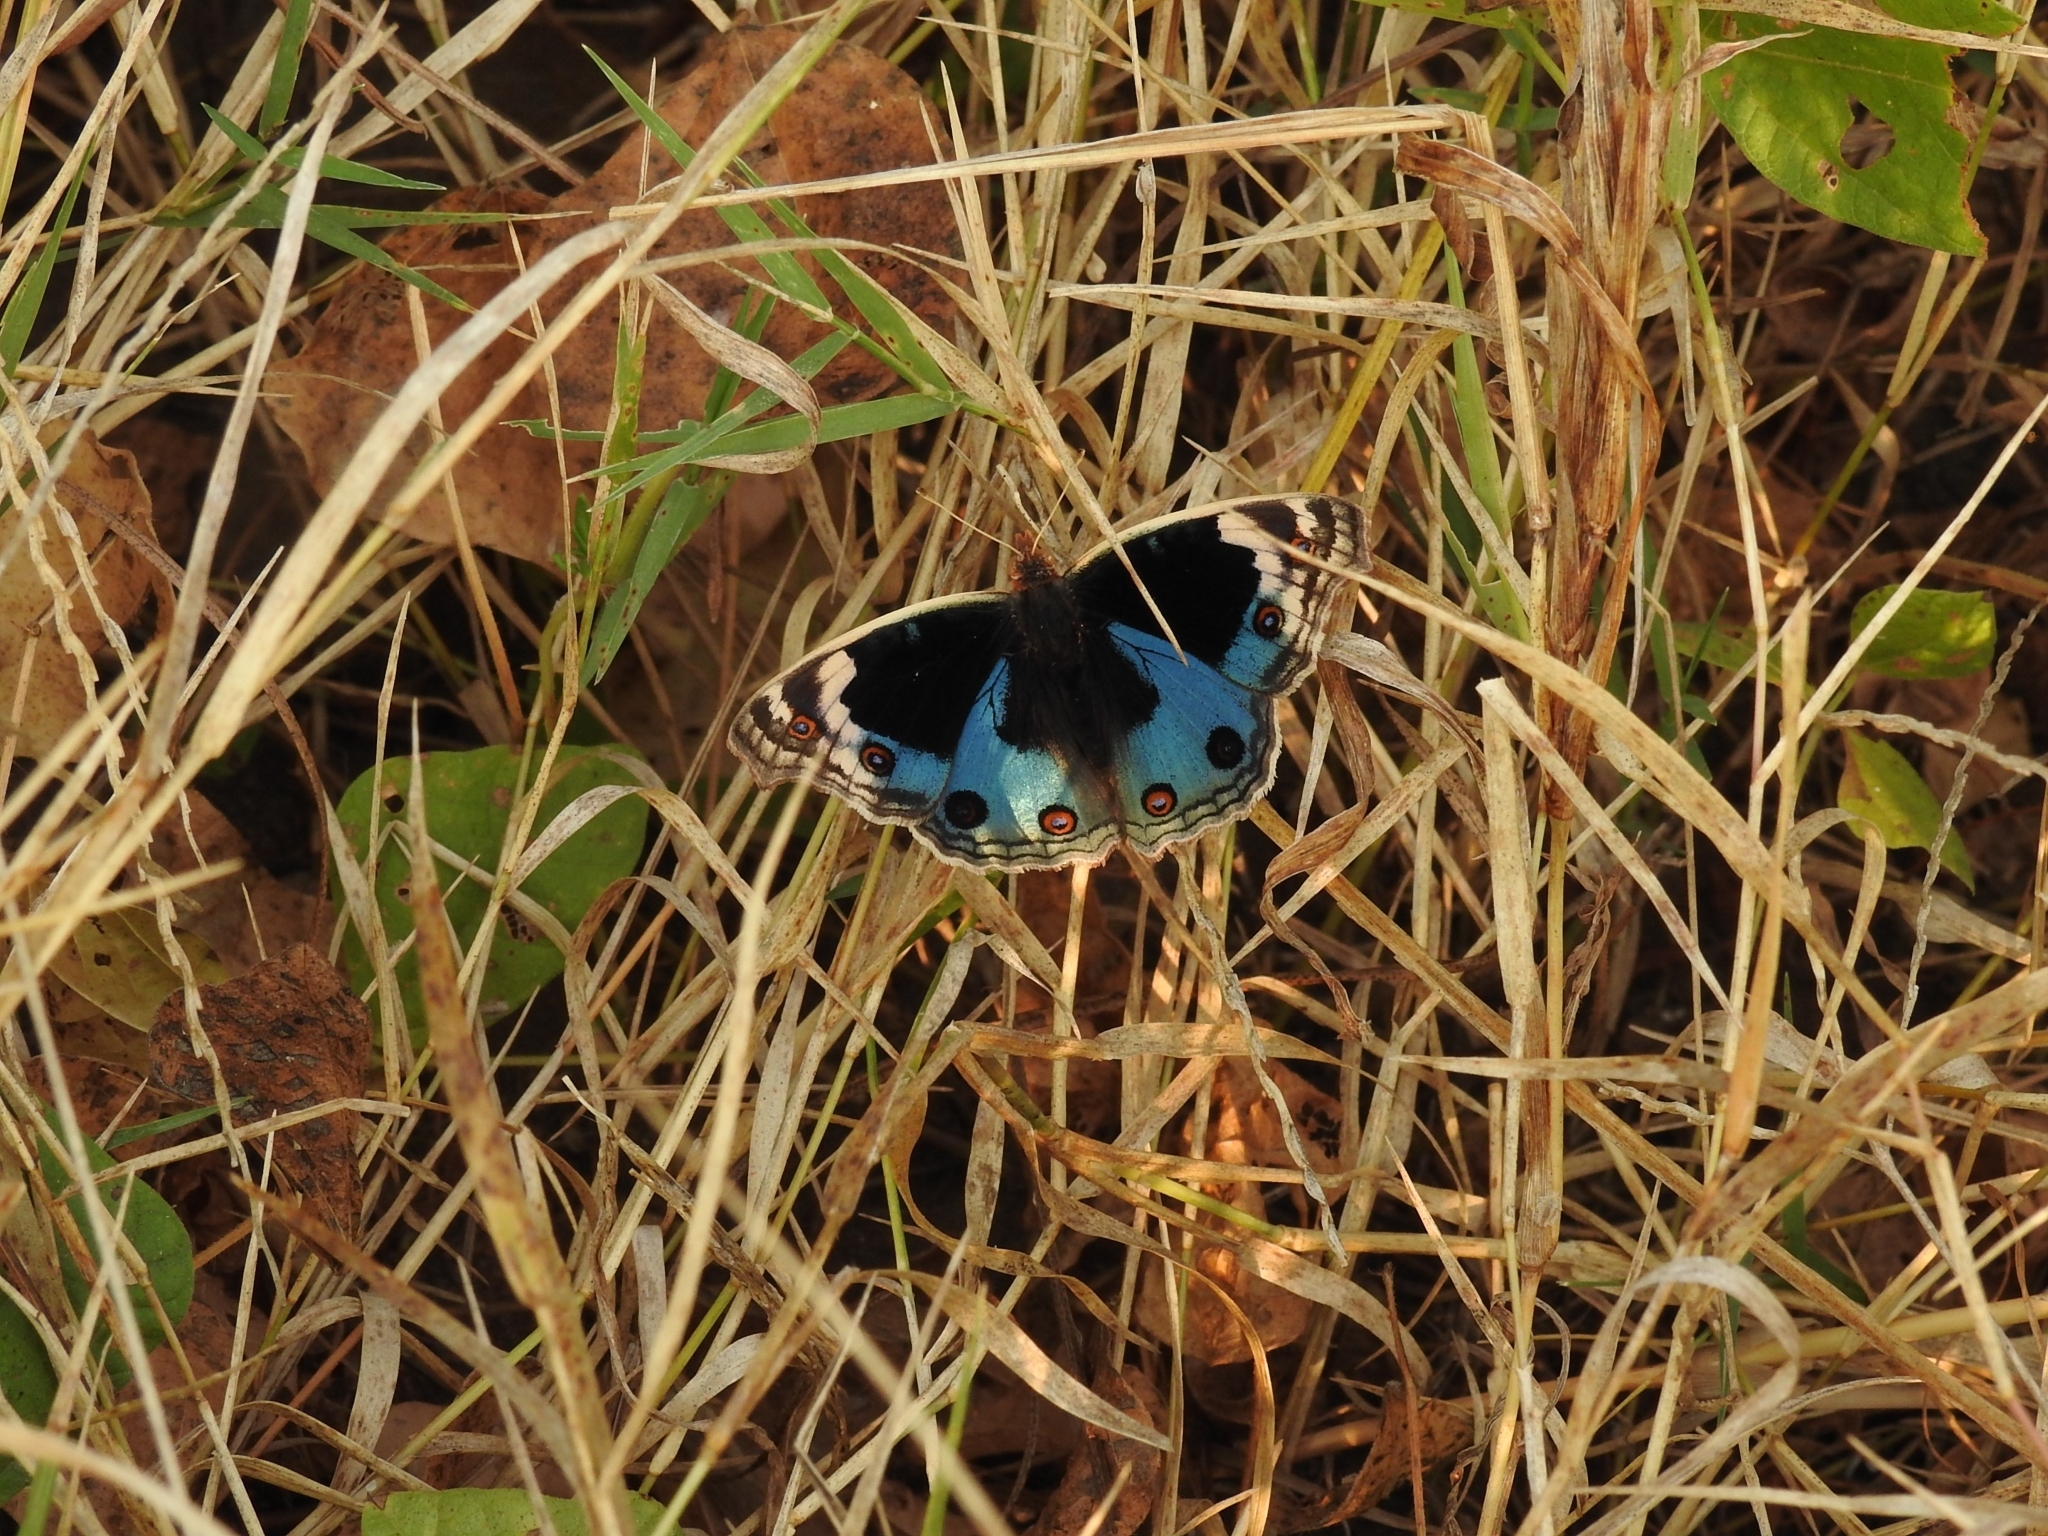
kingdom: Animalia
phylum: Arthropoda
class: Insecta
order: Lepidoptera
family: Nymphalidae
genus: Junonia
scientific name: Junonia orithya
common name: Blue pansy
